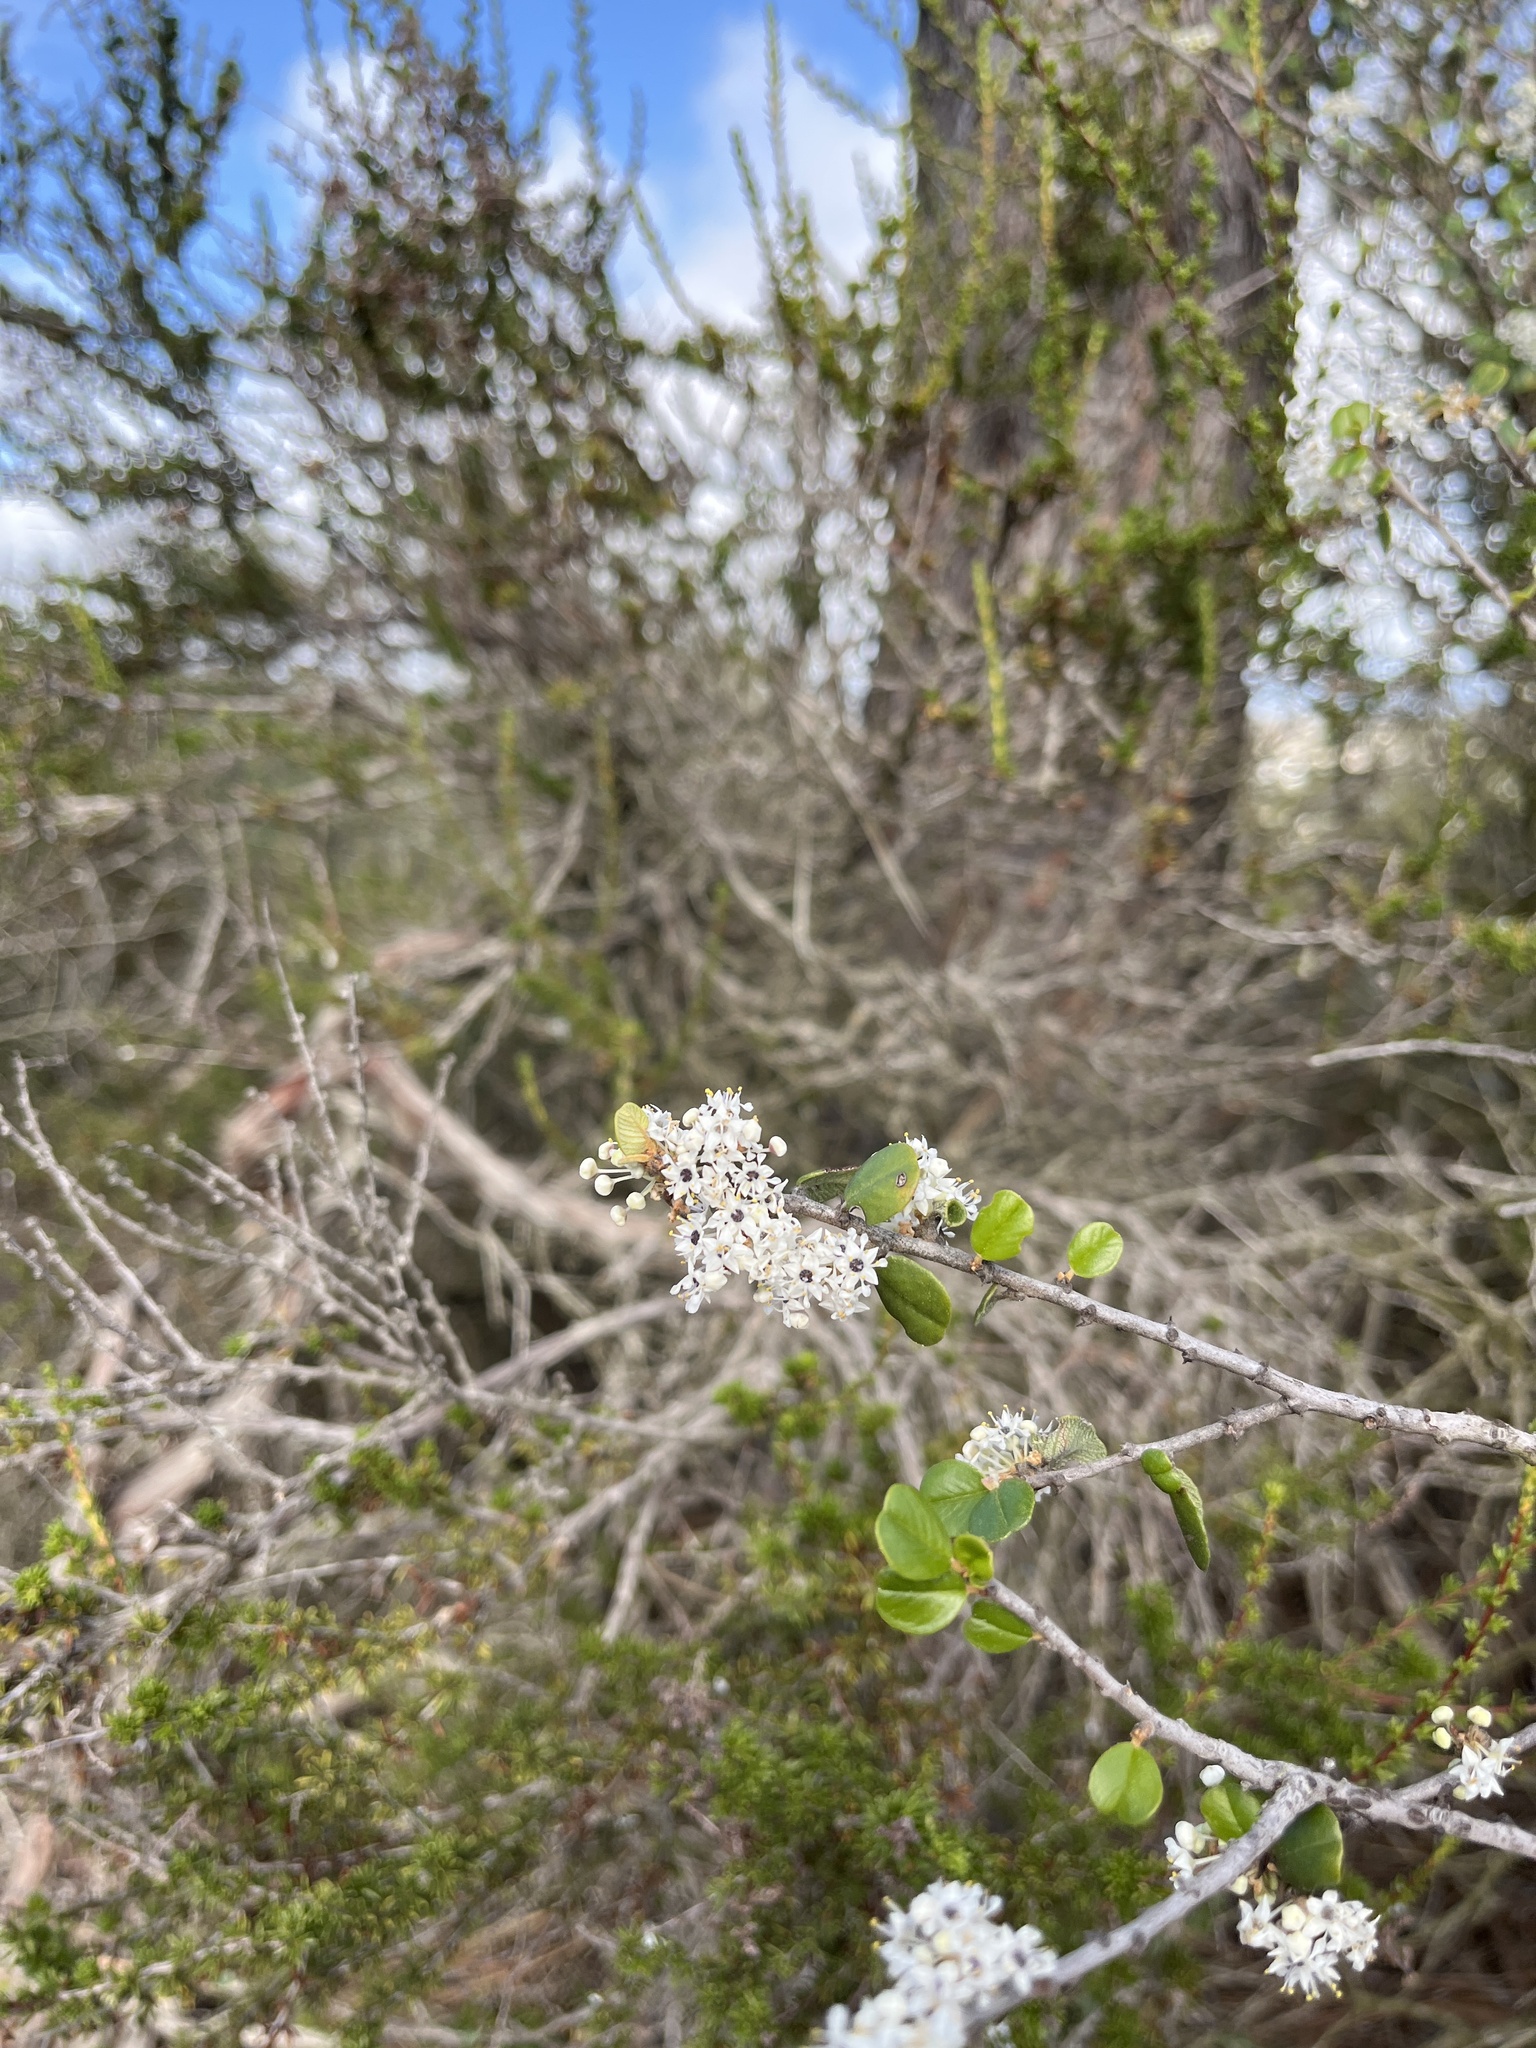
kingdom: Plantae
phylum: Tracheophyta
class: Magnoliopsida
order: Rosales
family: Rhamnaceae
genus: Ceanothus
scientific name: Ceanothus verrucosus
